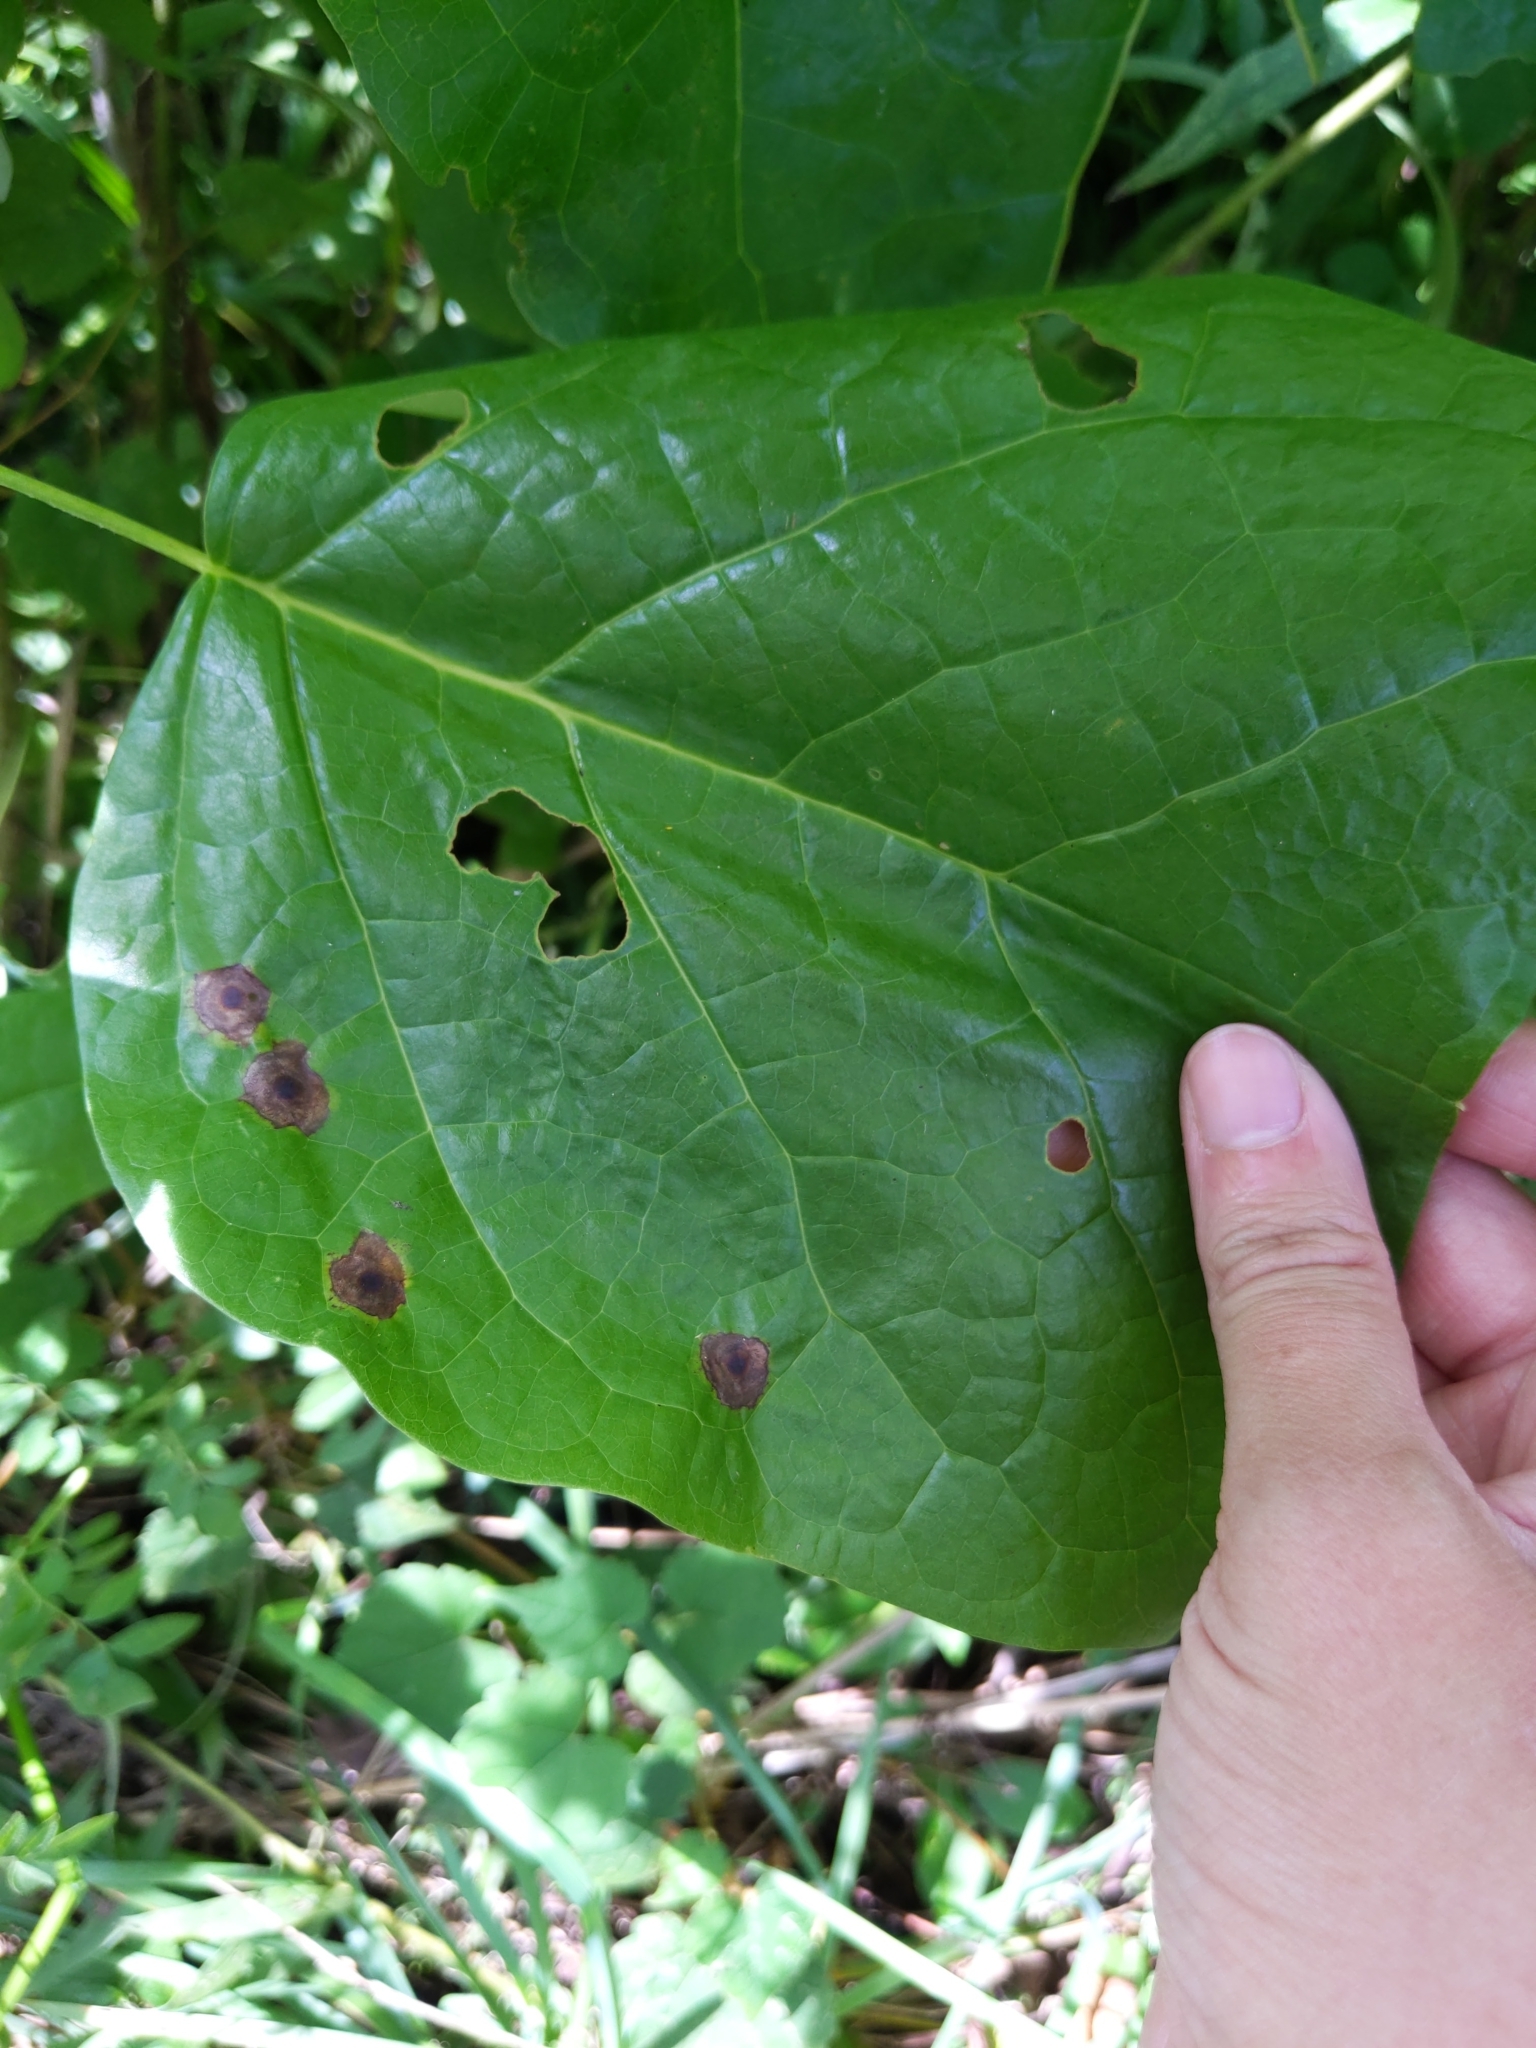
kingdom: Animalia
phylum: Arthropoda
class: Insecta
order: Diptera
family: Cecidomyiidae
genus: Resseliella
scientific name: Resseliella liriodendri
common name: Tulip tree leaf spot gall midge
